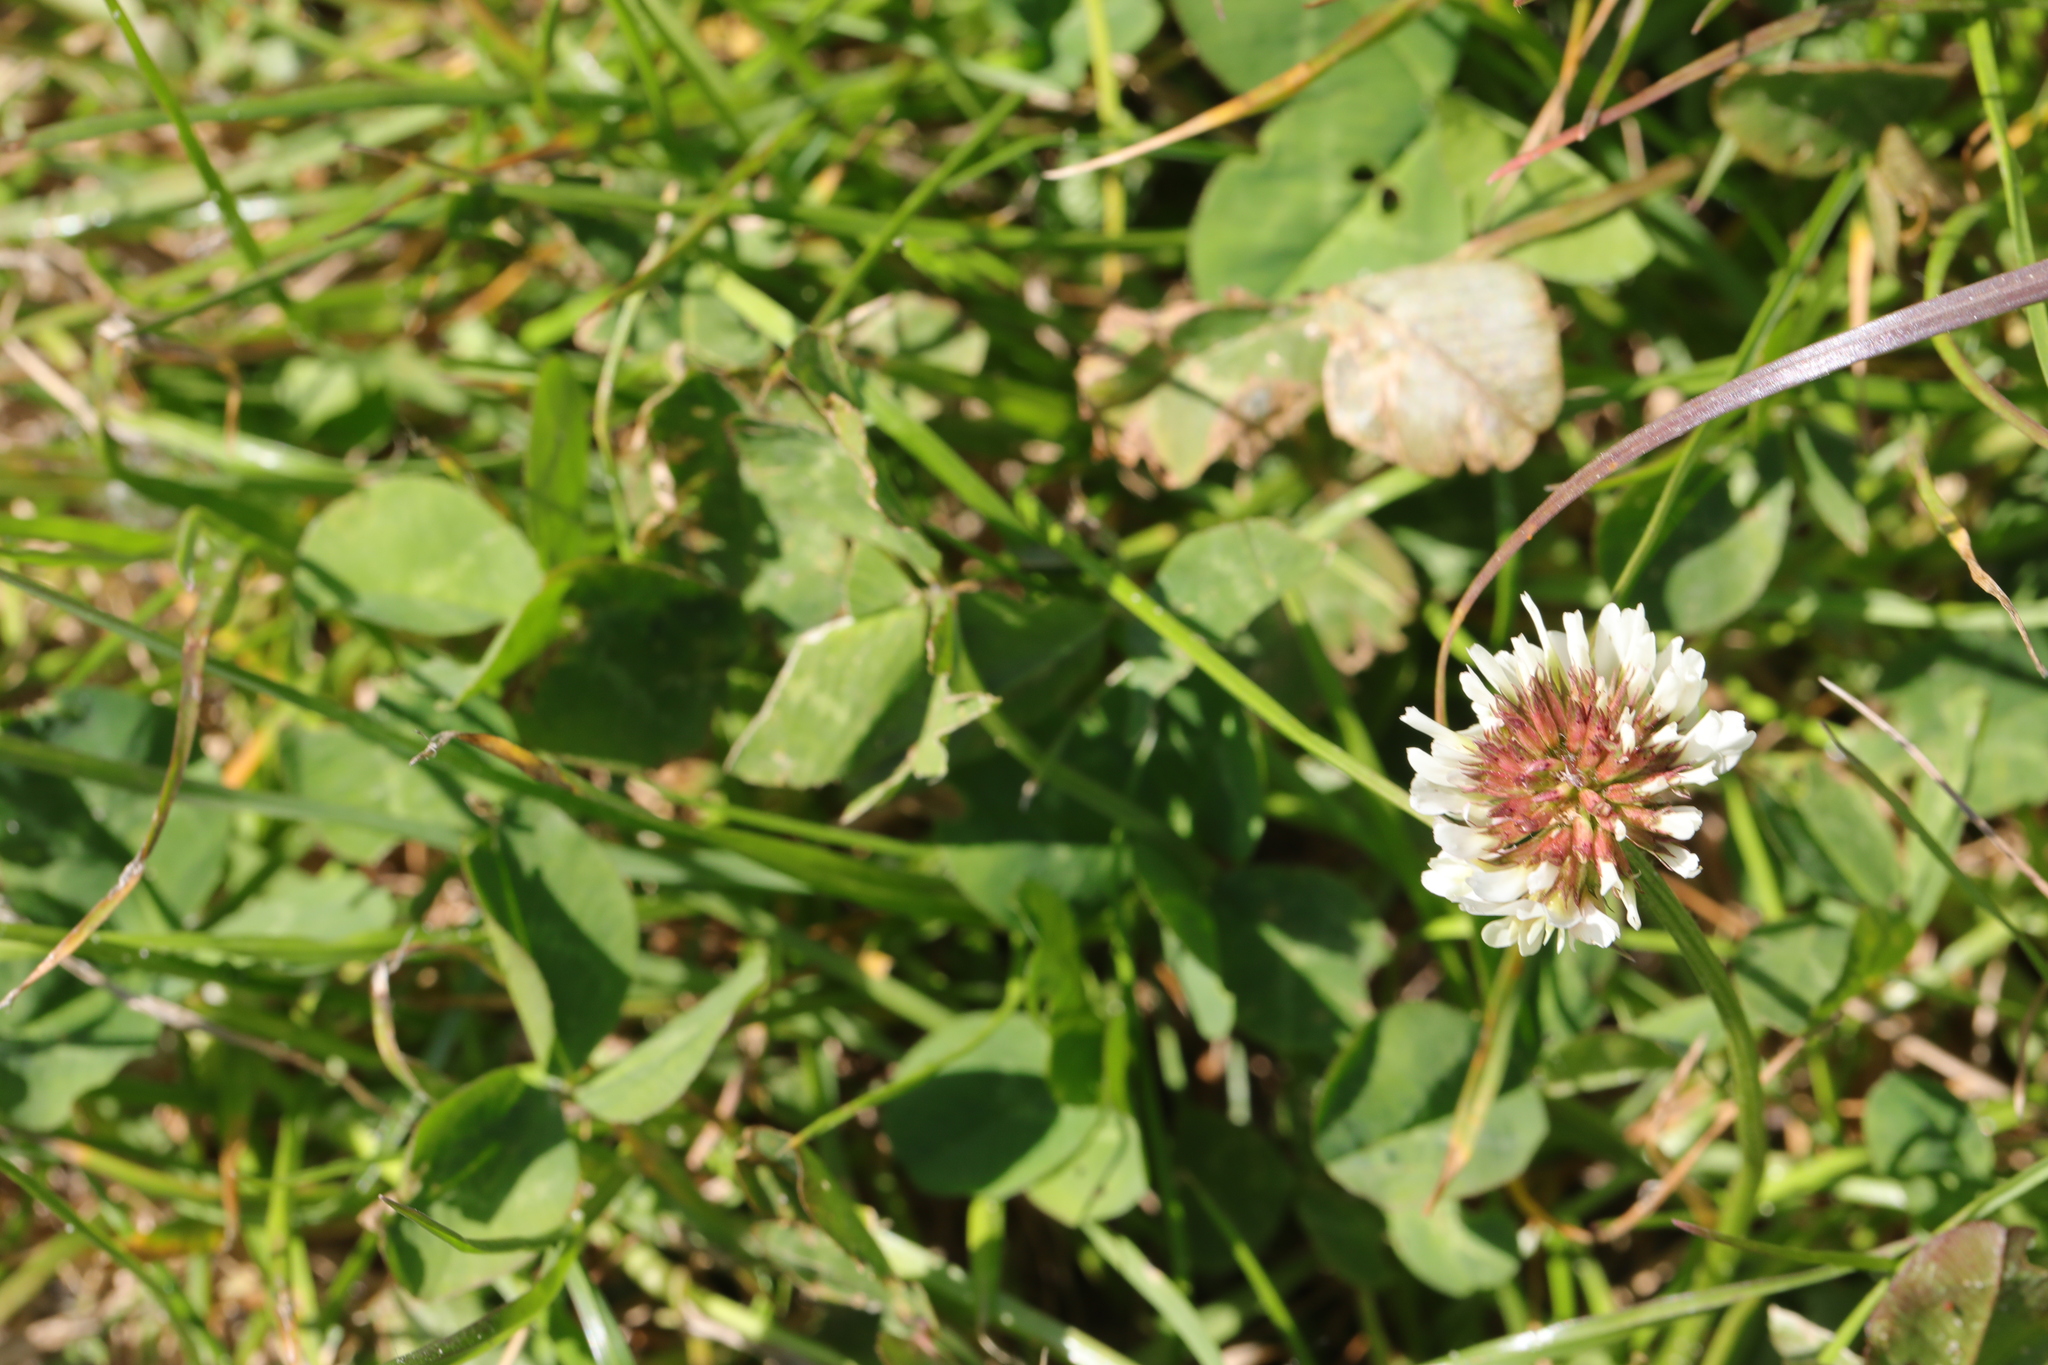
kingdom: Plantae
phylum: Tracheophyta
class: Magnoliopsida
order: Fabales
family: Fabaceae
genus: Trifolium
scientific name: Trifolium repens
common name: White clover
